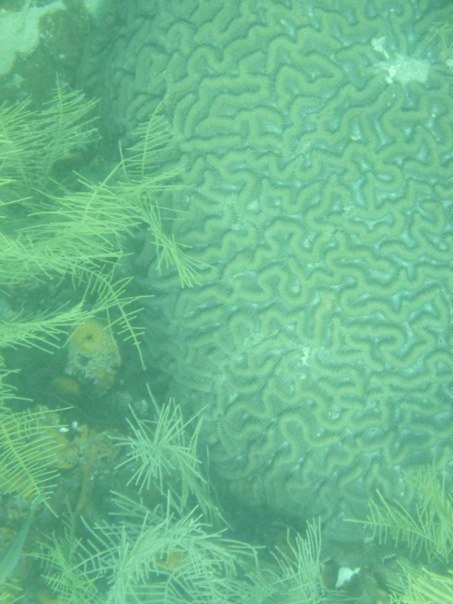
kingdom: Animalia
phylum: Cnidaria
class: Anthozoa
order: Scleractinia
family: Faviidae
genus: Pseudodiploria
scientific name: Pseudodiploria strigosa
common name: Symmetrical brain coral
